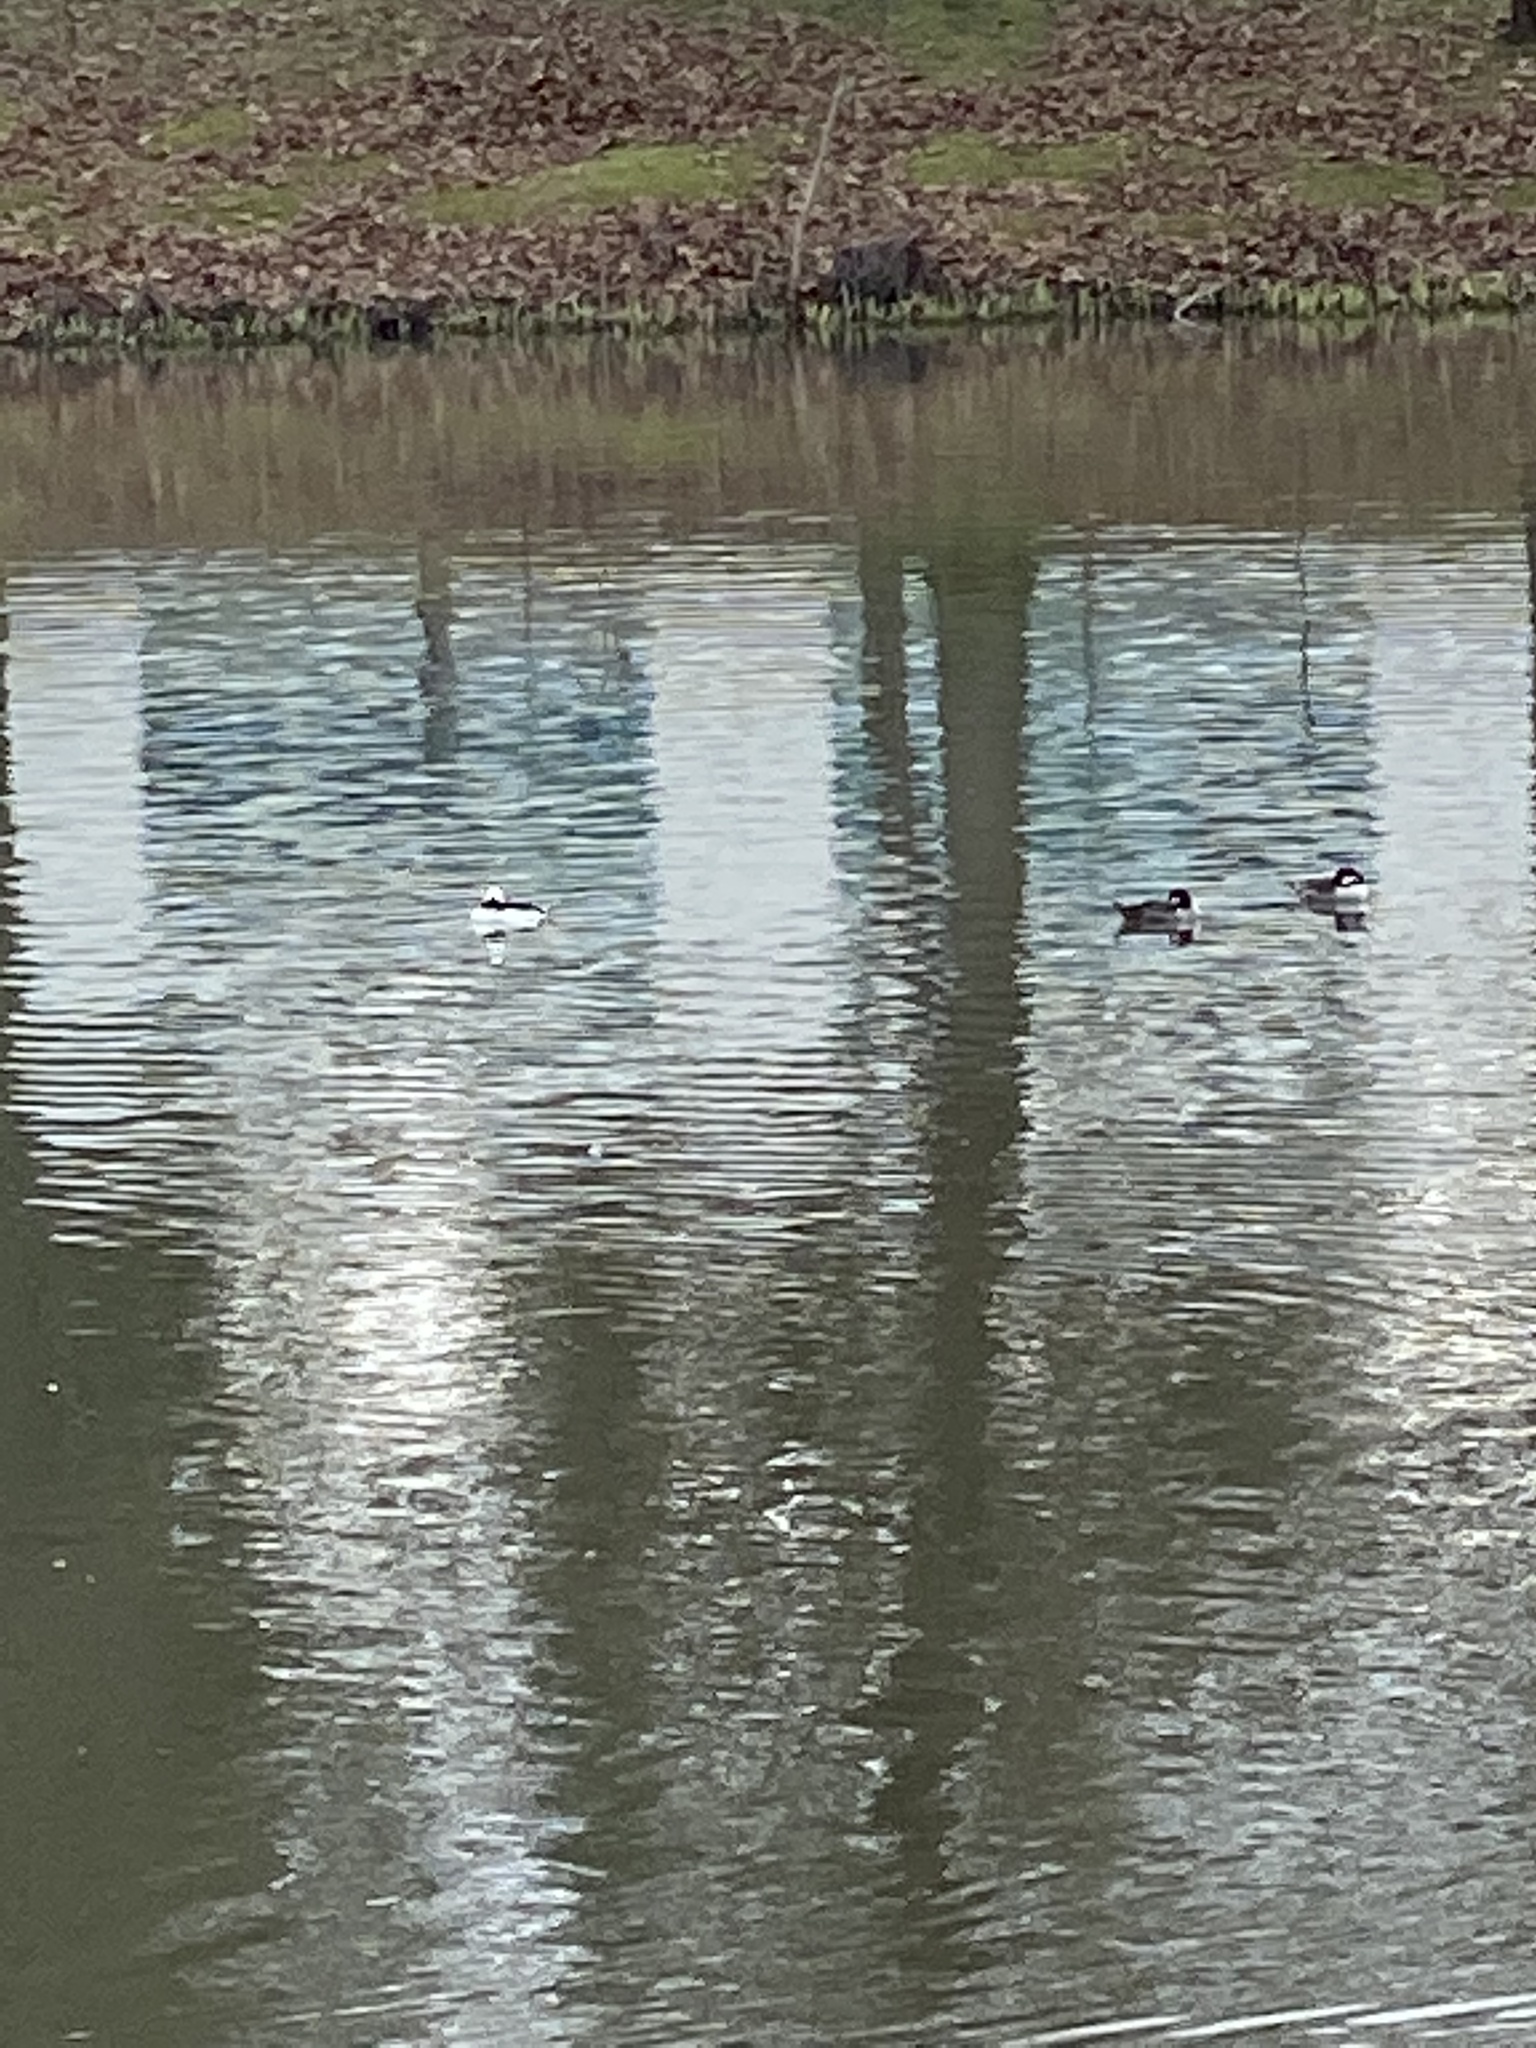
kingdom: Animalia
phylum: Chordata
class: Aves
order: Anseriformes
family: Anatidae
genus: Bucephala
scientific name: Bucephala albeola
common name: Bufflehead
